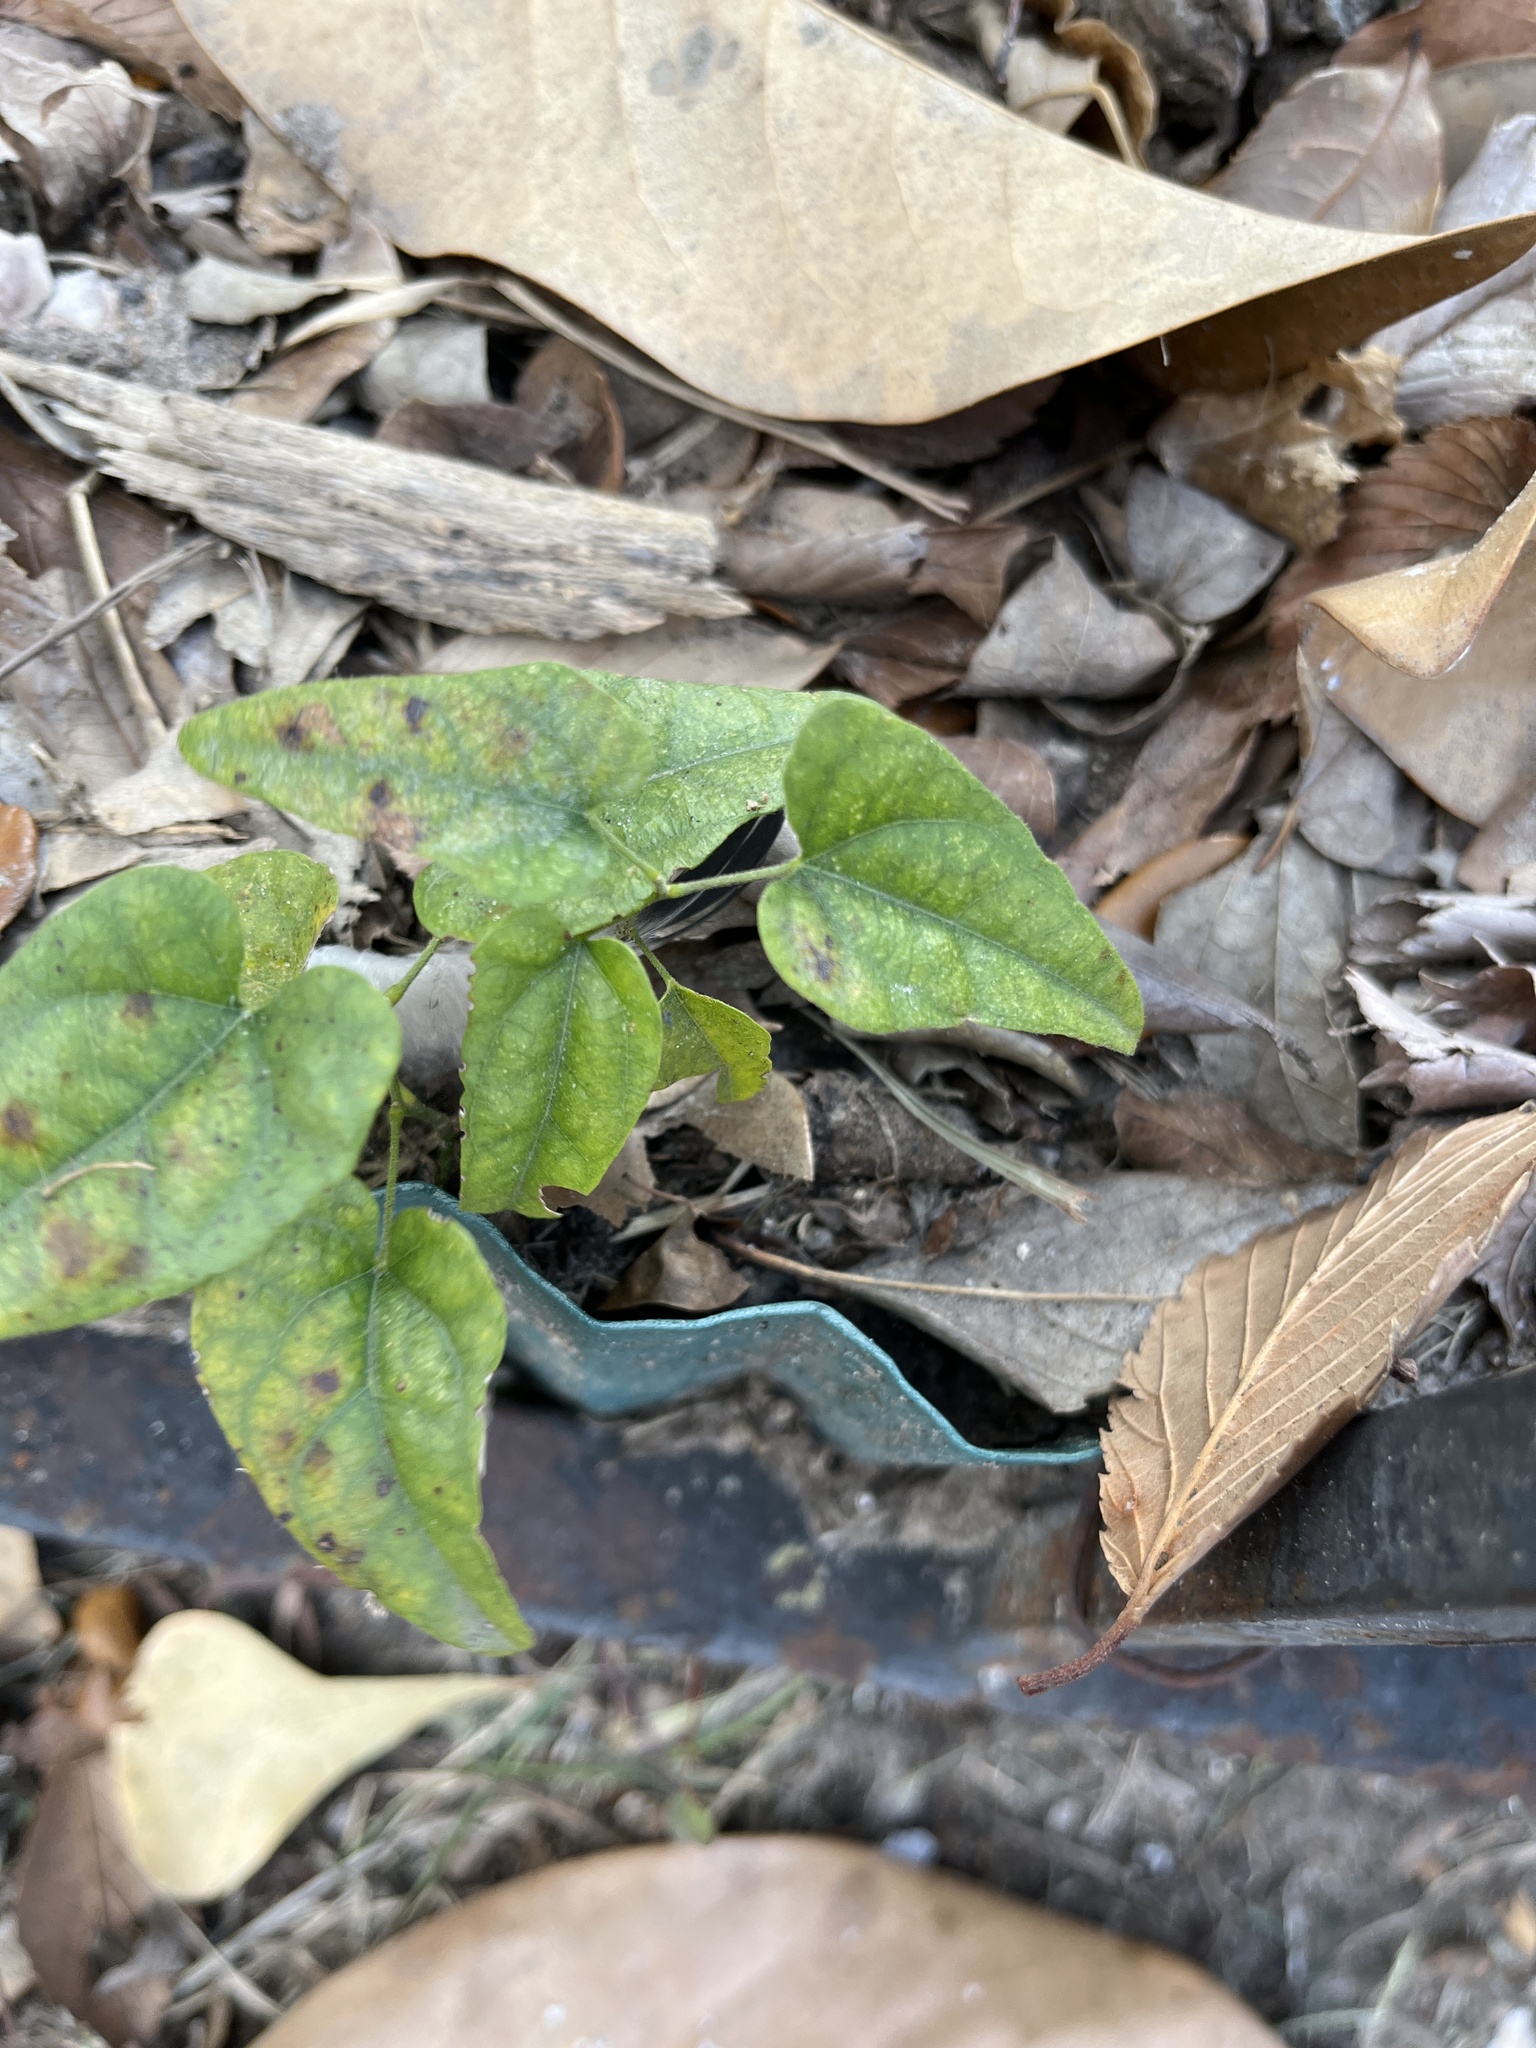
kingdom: Plantae
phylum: Tracheophyta
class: Magnoliopsida
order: Ranunculales
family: Menispermaceae
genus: Cocculus
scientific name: Cocculus carolinus
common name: Carolina moonseed
